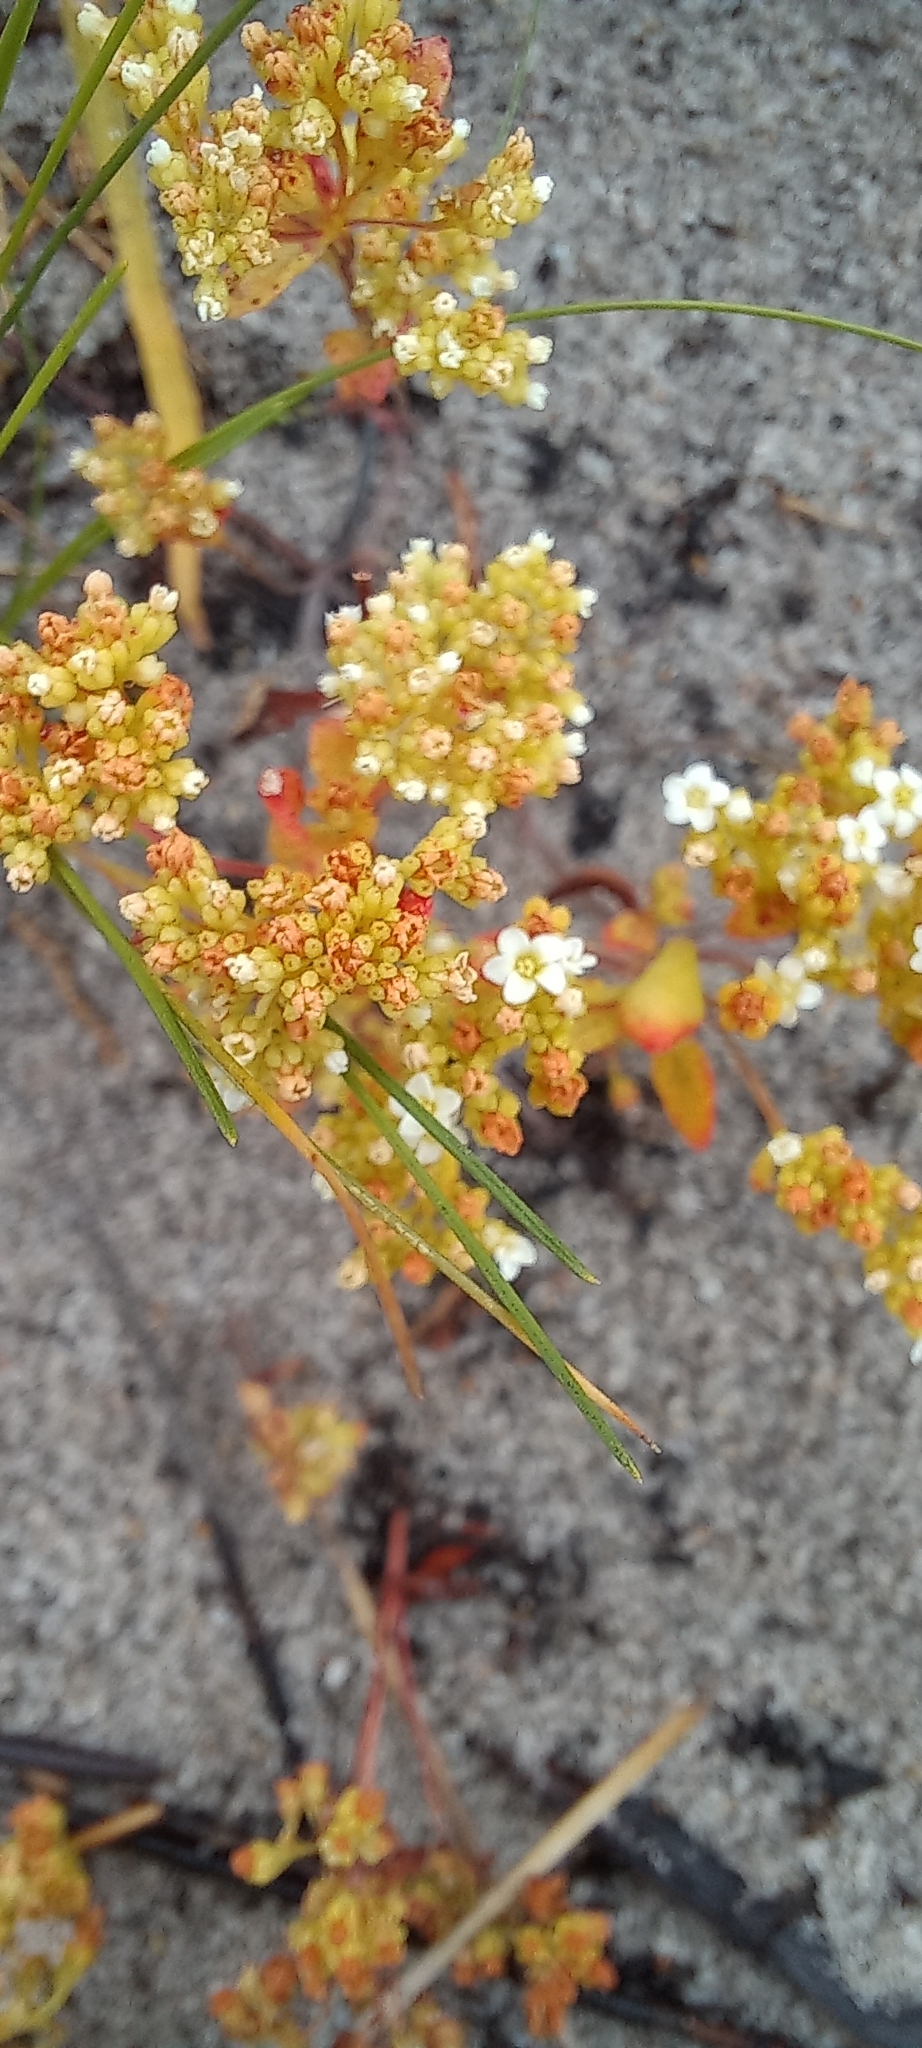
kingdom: Plantae
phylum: Tracheophyta
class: Magnoliopsida
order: Saxifragales
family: Crassulaceae
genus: Crassula
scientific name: Crassula filiformis
